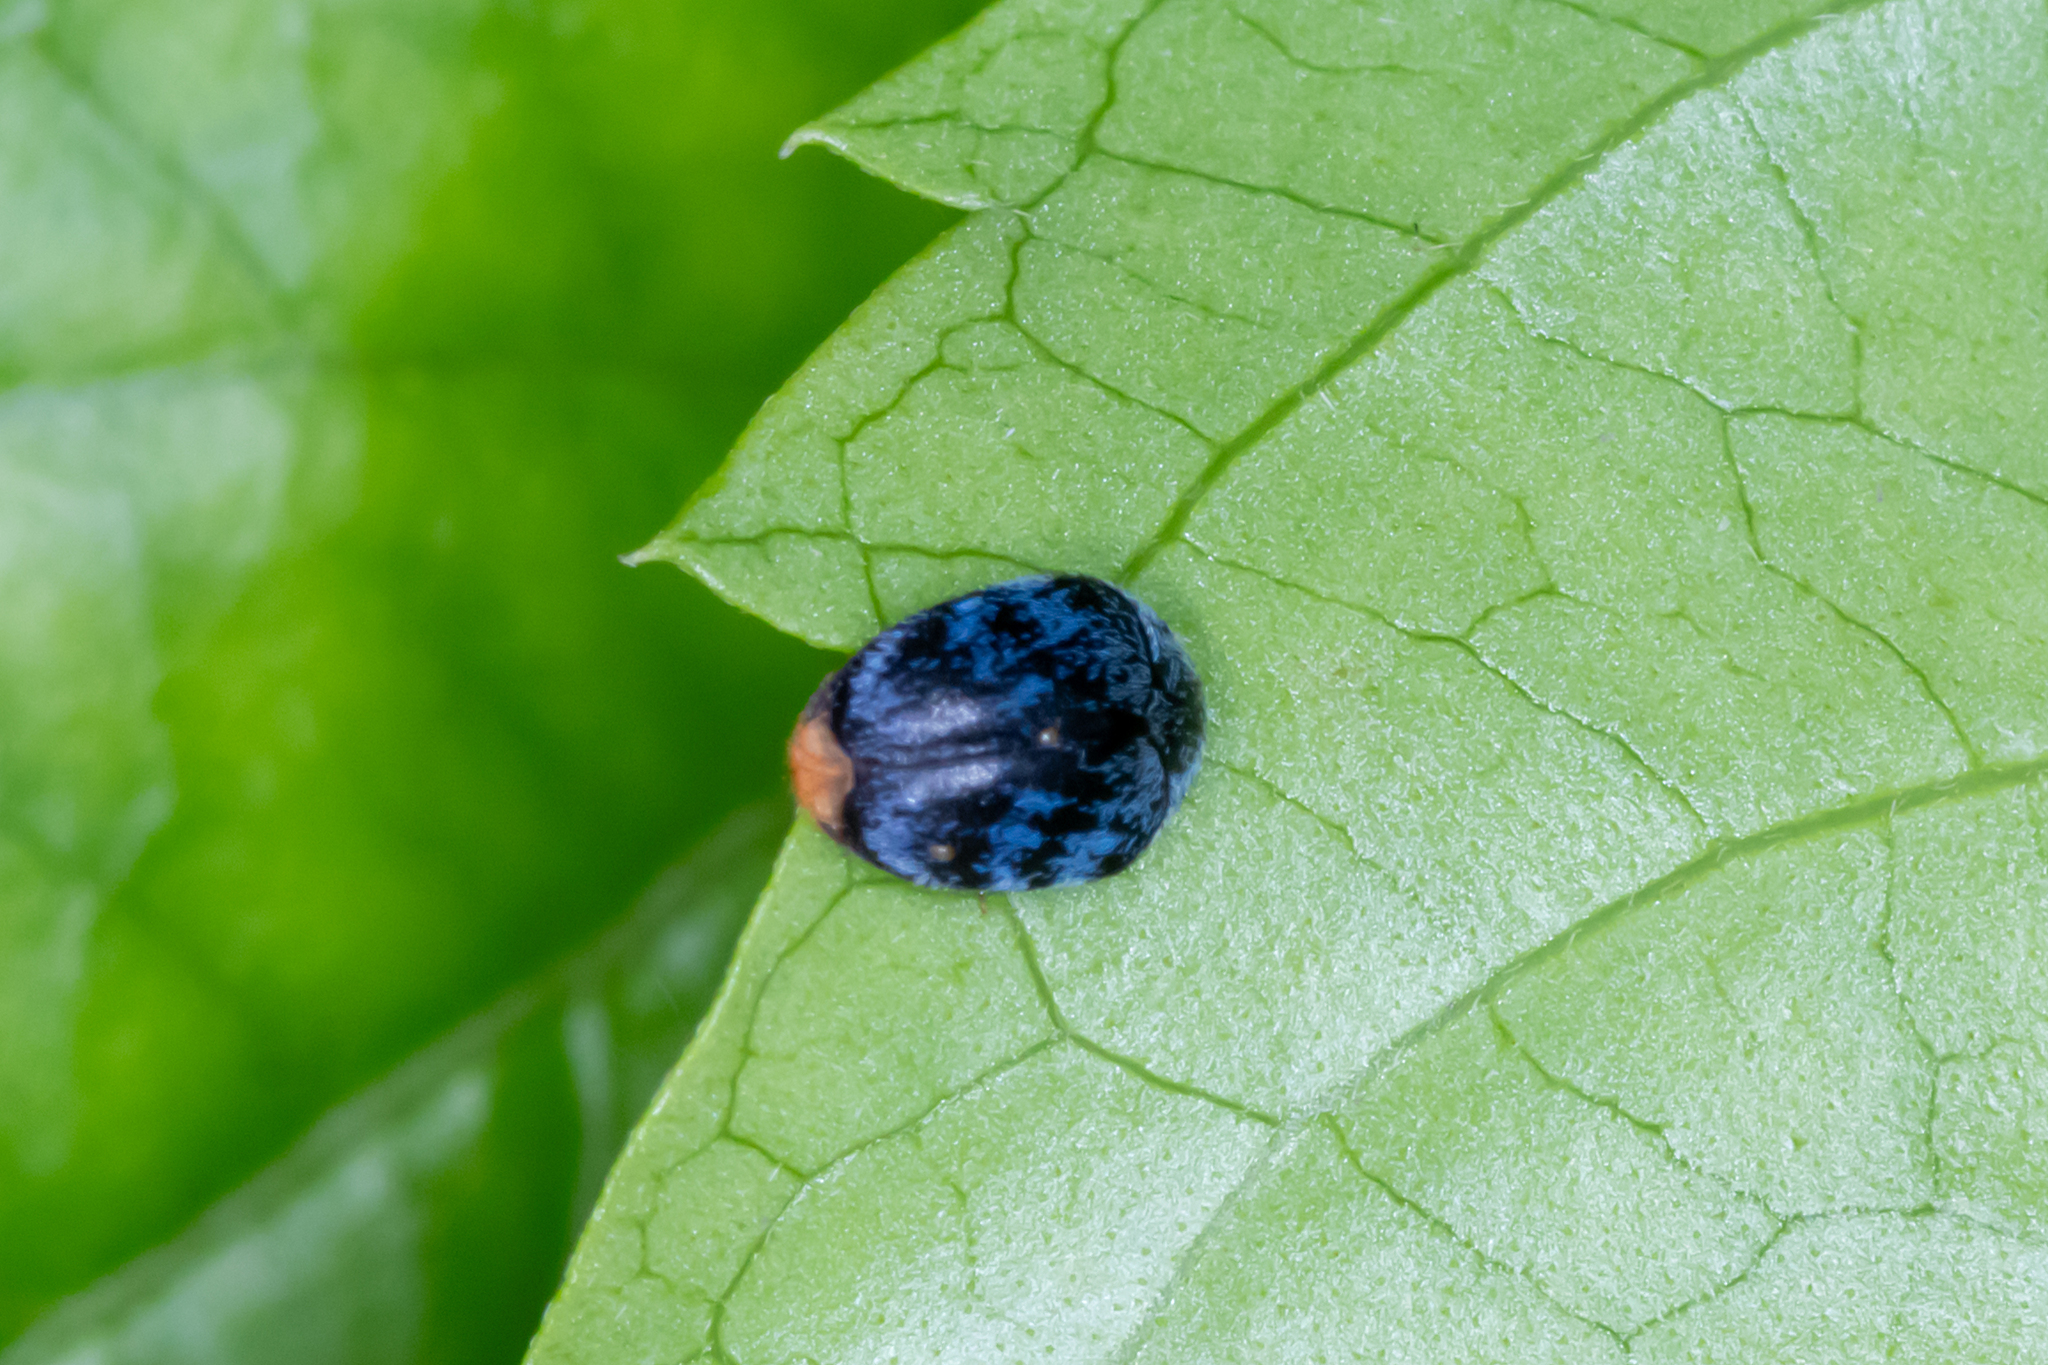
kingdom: Animalia
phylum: Arthropoda
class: Insecta
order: Coleoptera
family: Dermestidae
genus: Thaumaglossa
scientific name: Thaumaglossa
